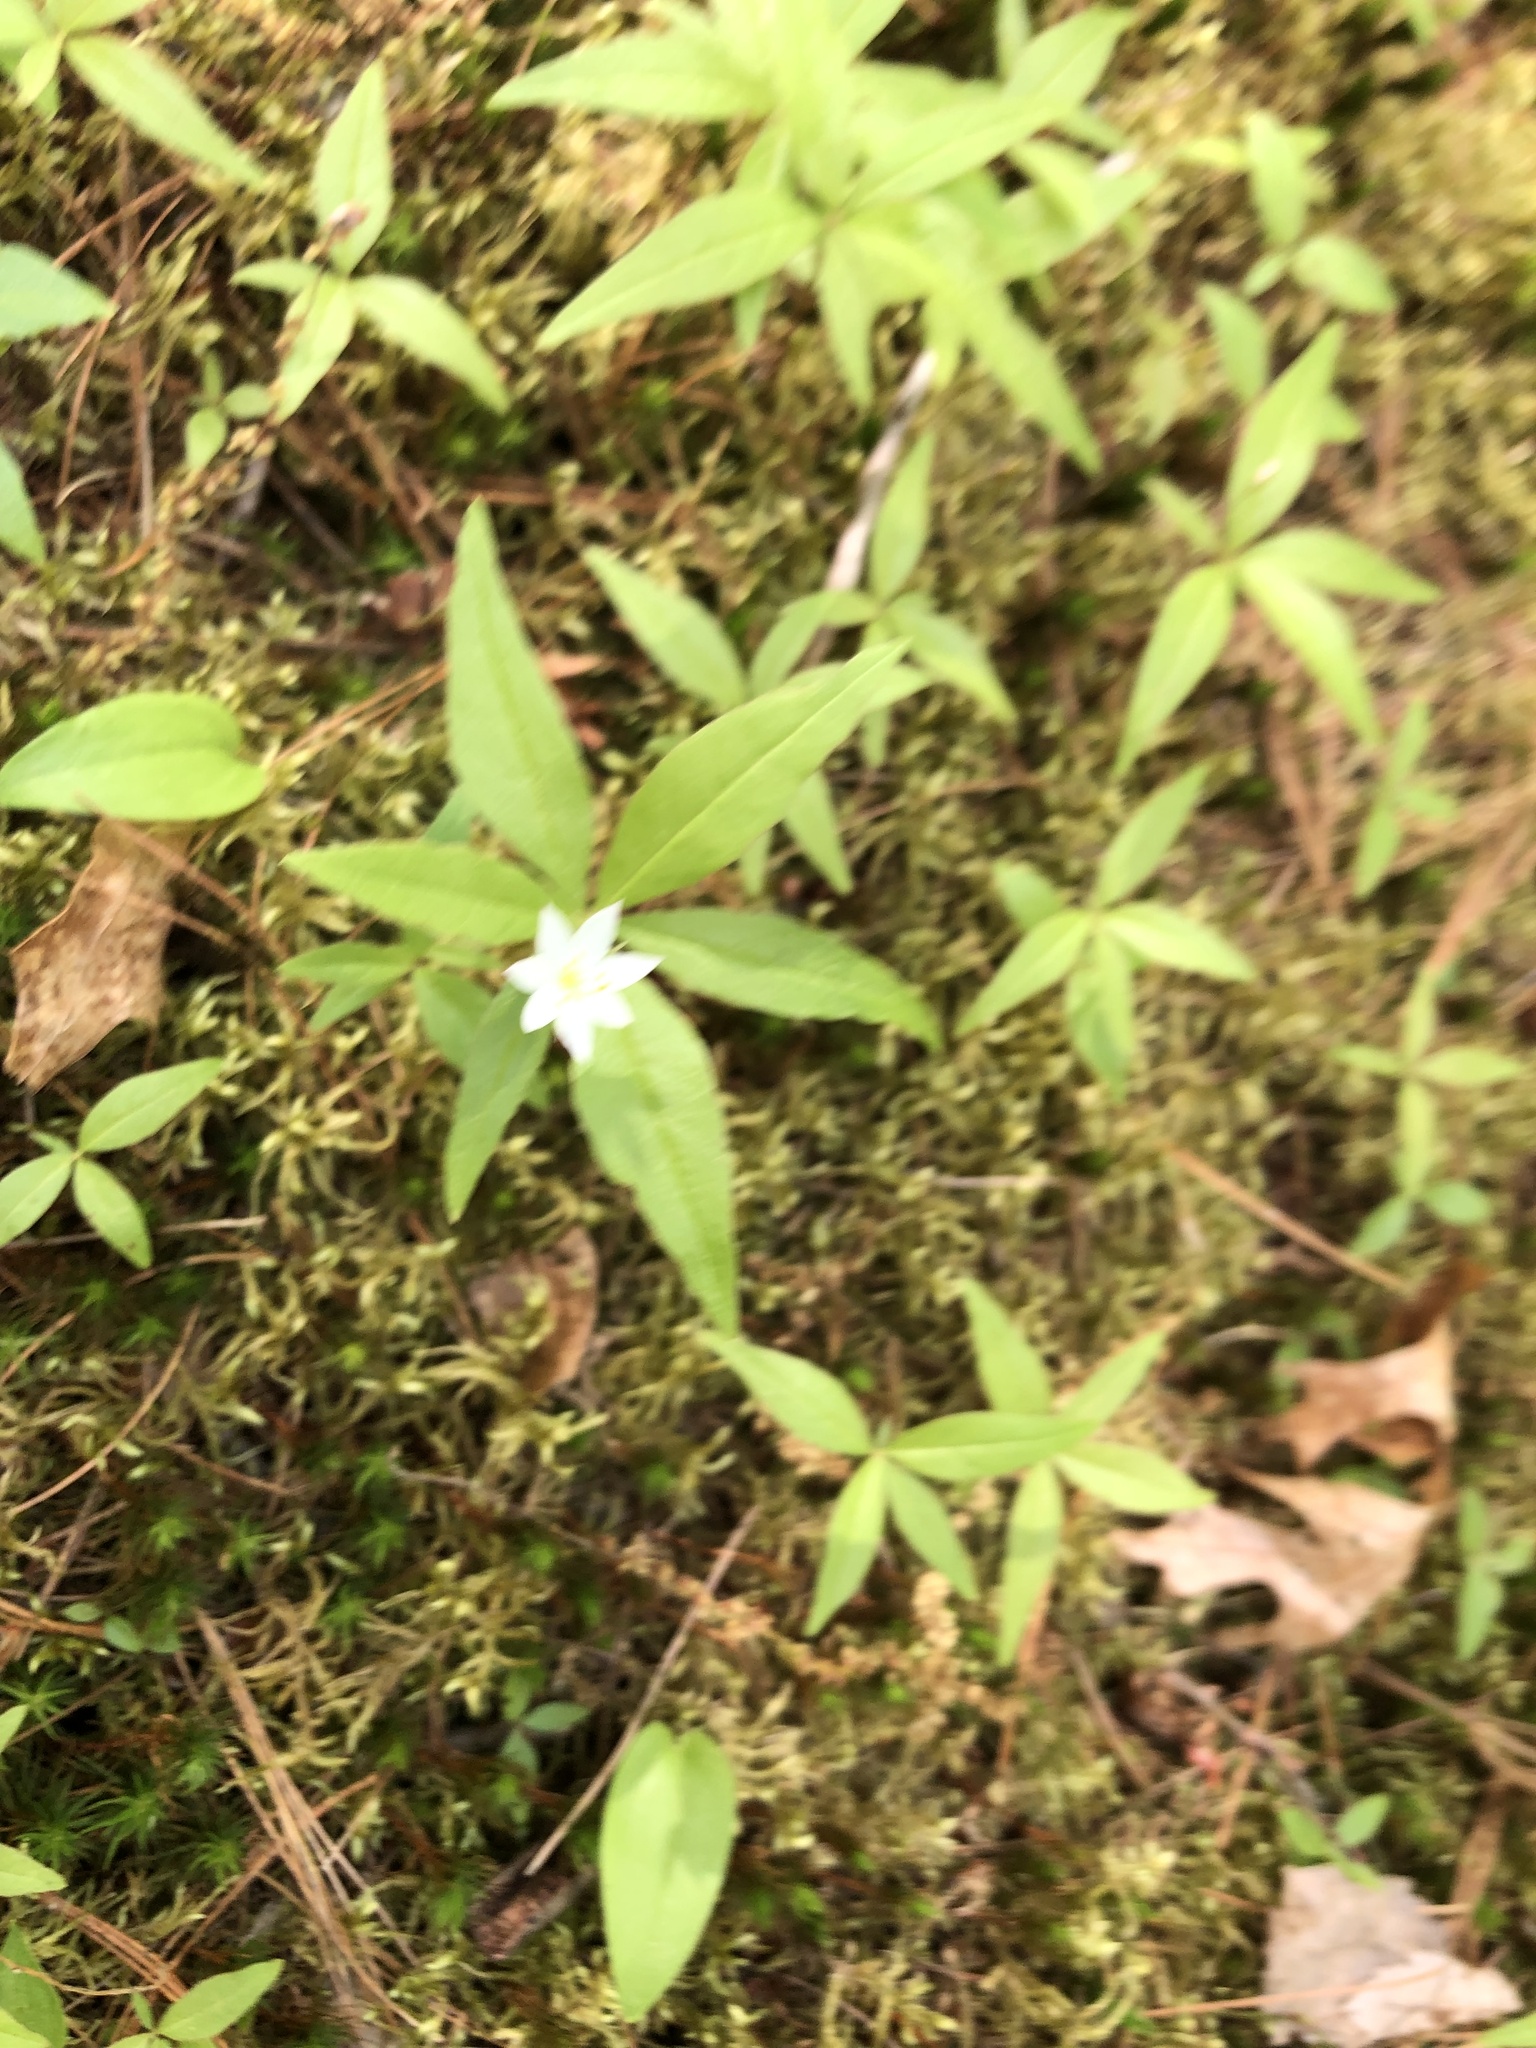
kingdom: Plantae
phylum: Tracheophyta
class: Magnoliopsida
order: Ericales
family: Primulaceae
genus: Lysimachia
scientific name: Lysimachia borealis
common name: American starflower
